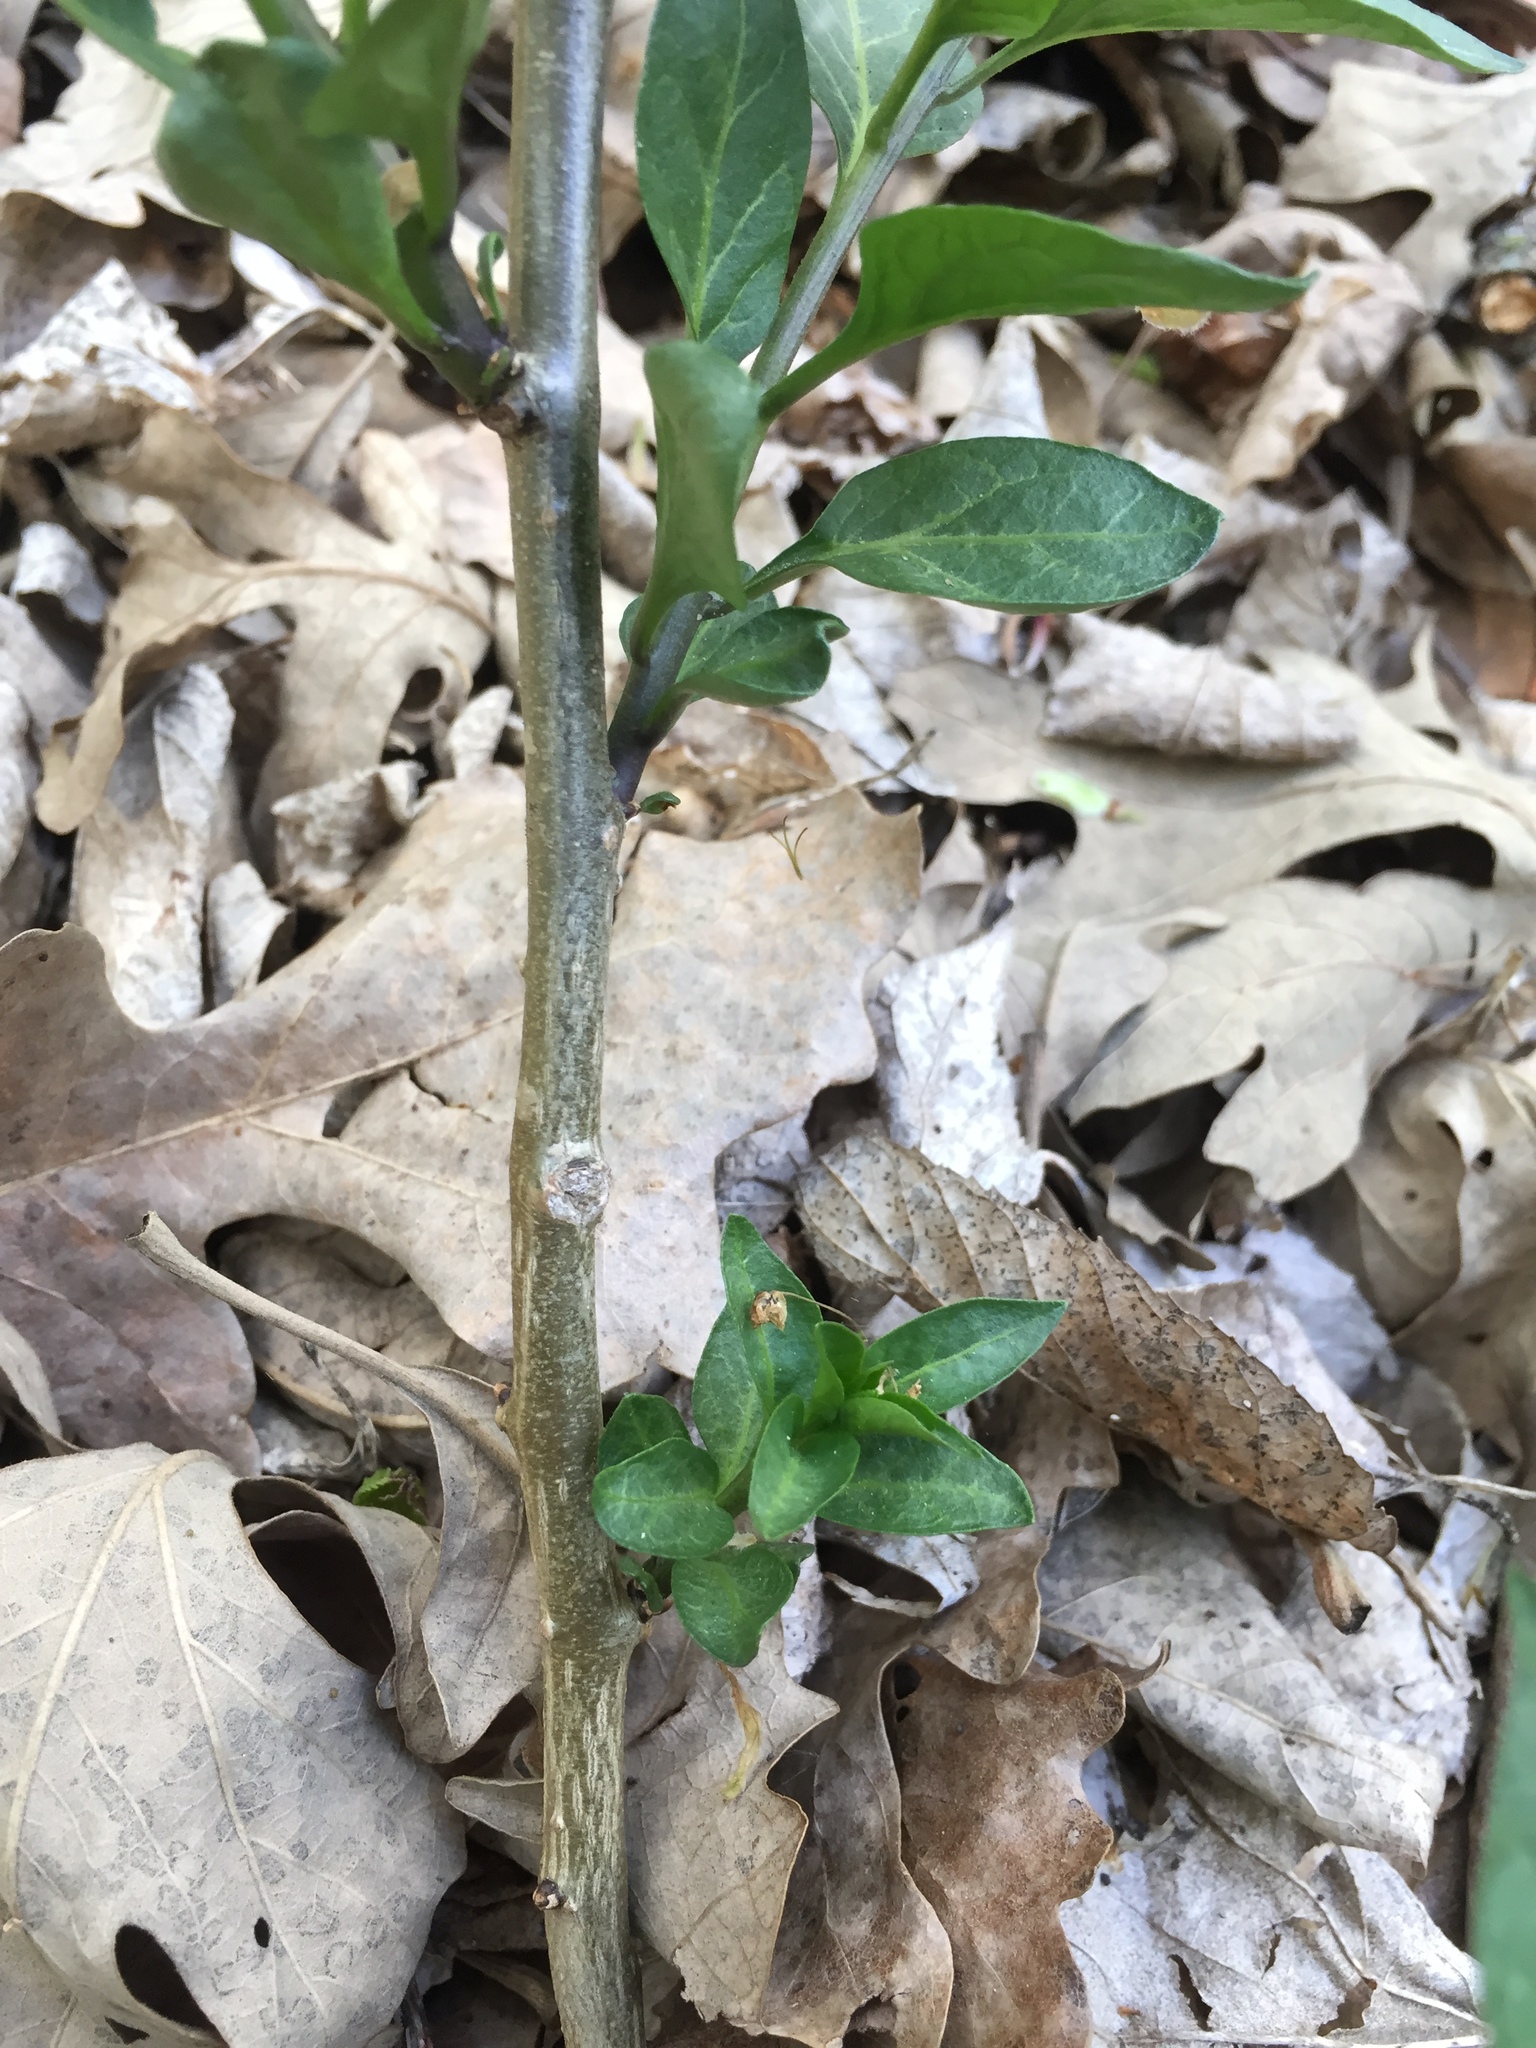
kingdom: Plantae
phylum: Tracheophyta
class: Magnoliopsida
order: Solanales
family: Solanaceae
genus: Solanum
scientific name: Solanum dulcamara
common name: Climbing nightshade
